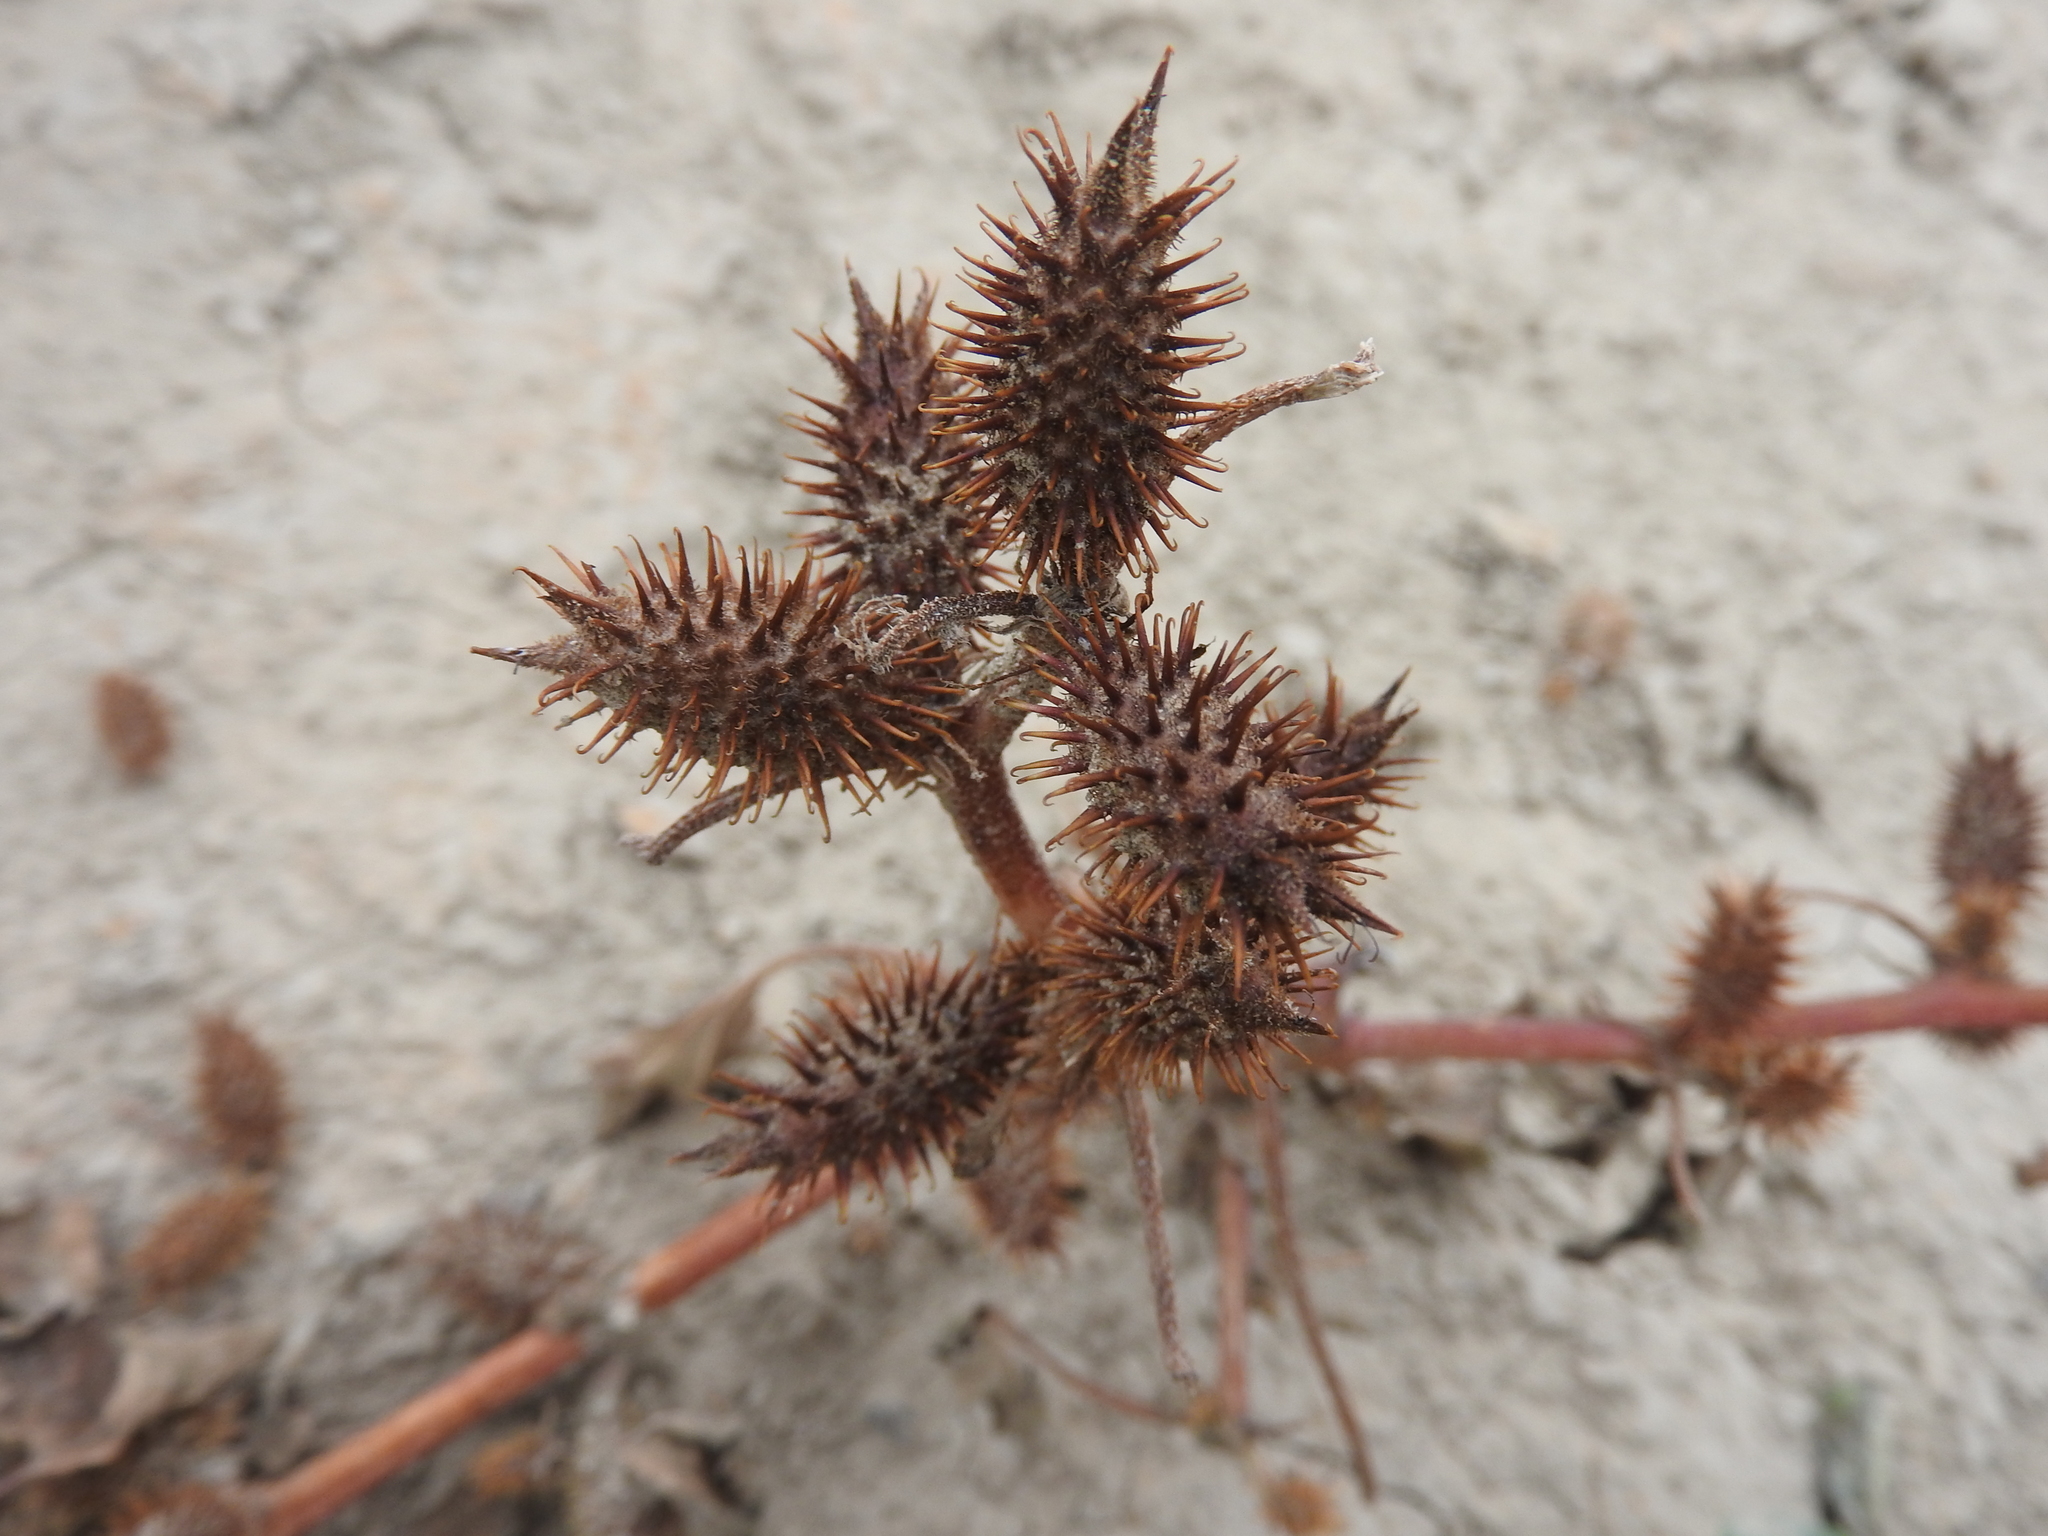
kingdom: Plantae
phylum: Tracheophyta
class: Magnoliopsida
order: Asterales
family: Asteraceae
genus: Xanthium
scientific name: Xanthium strumarium
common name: Rough cocklebur
